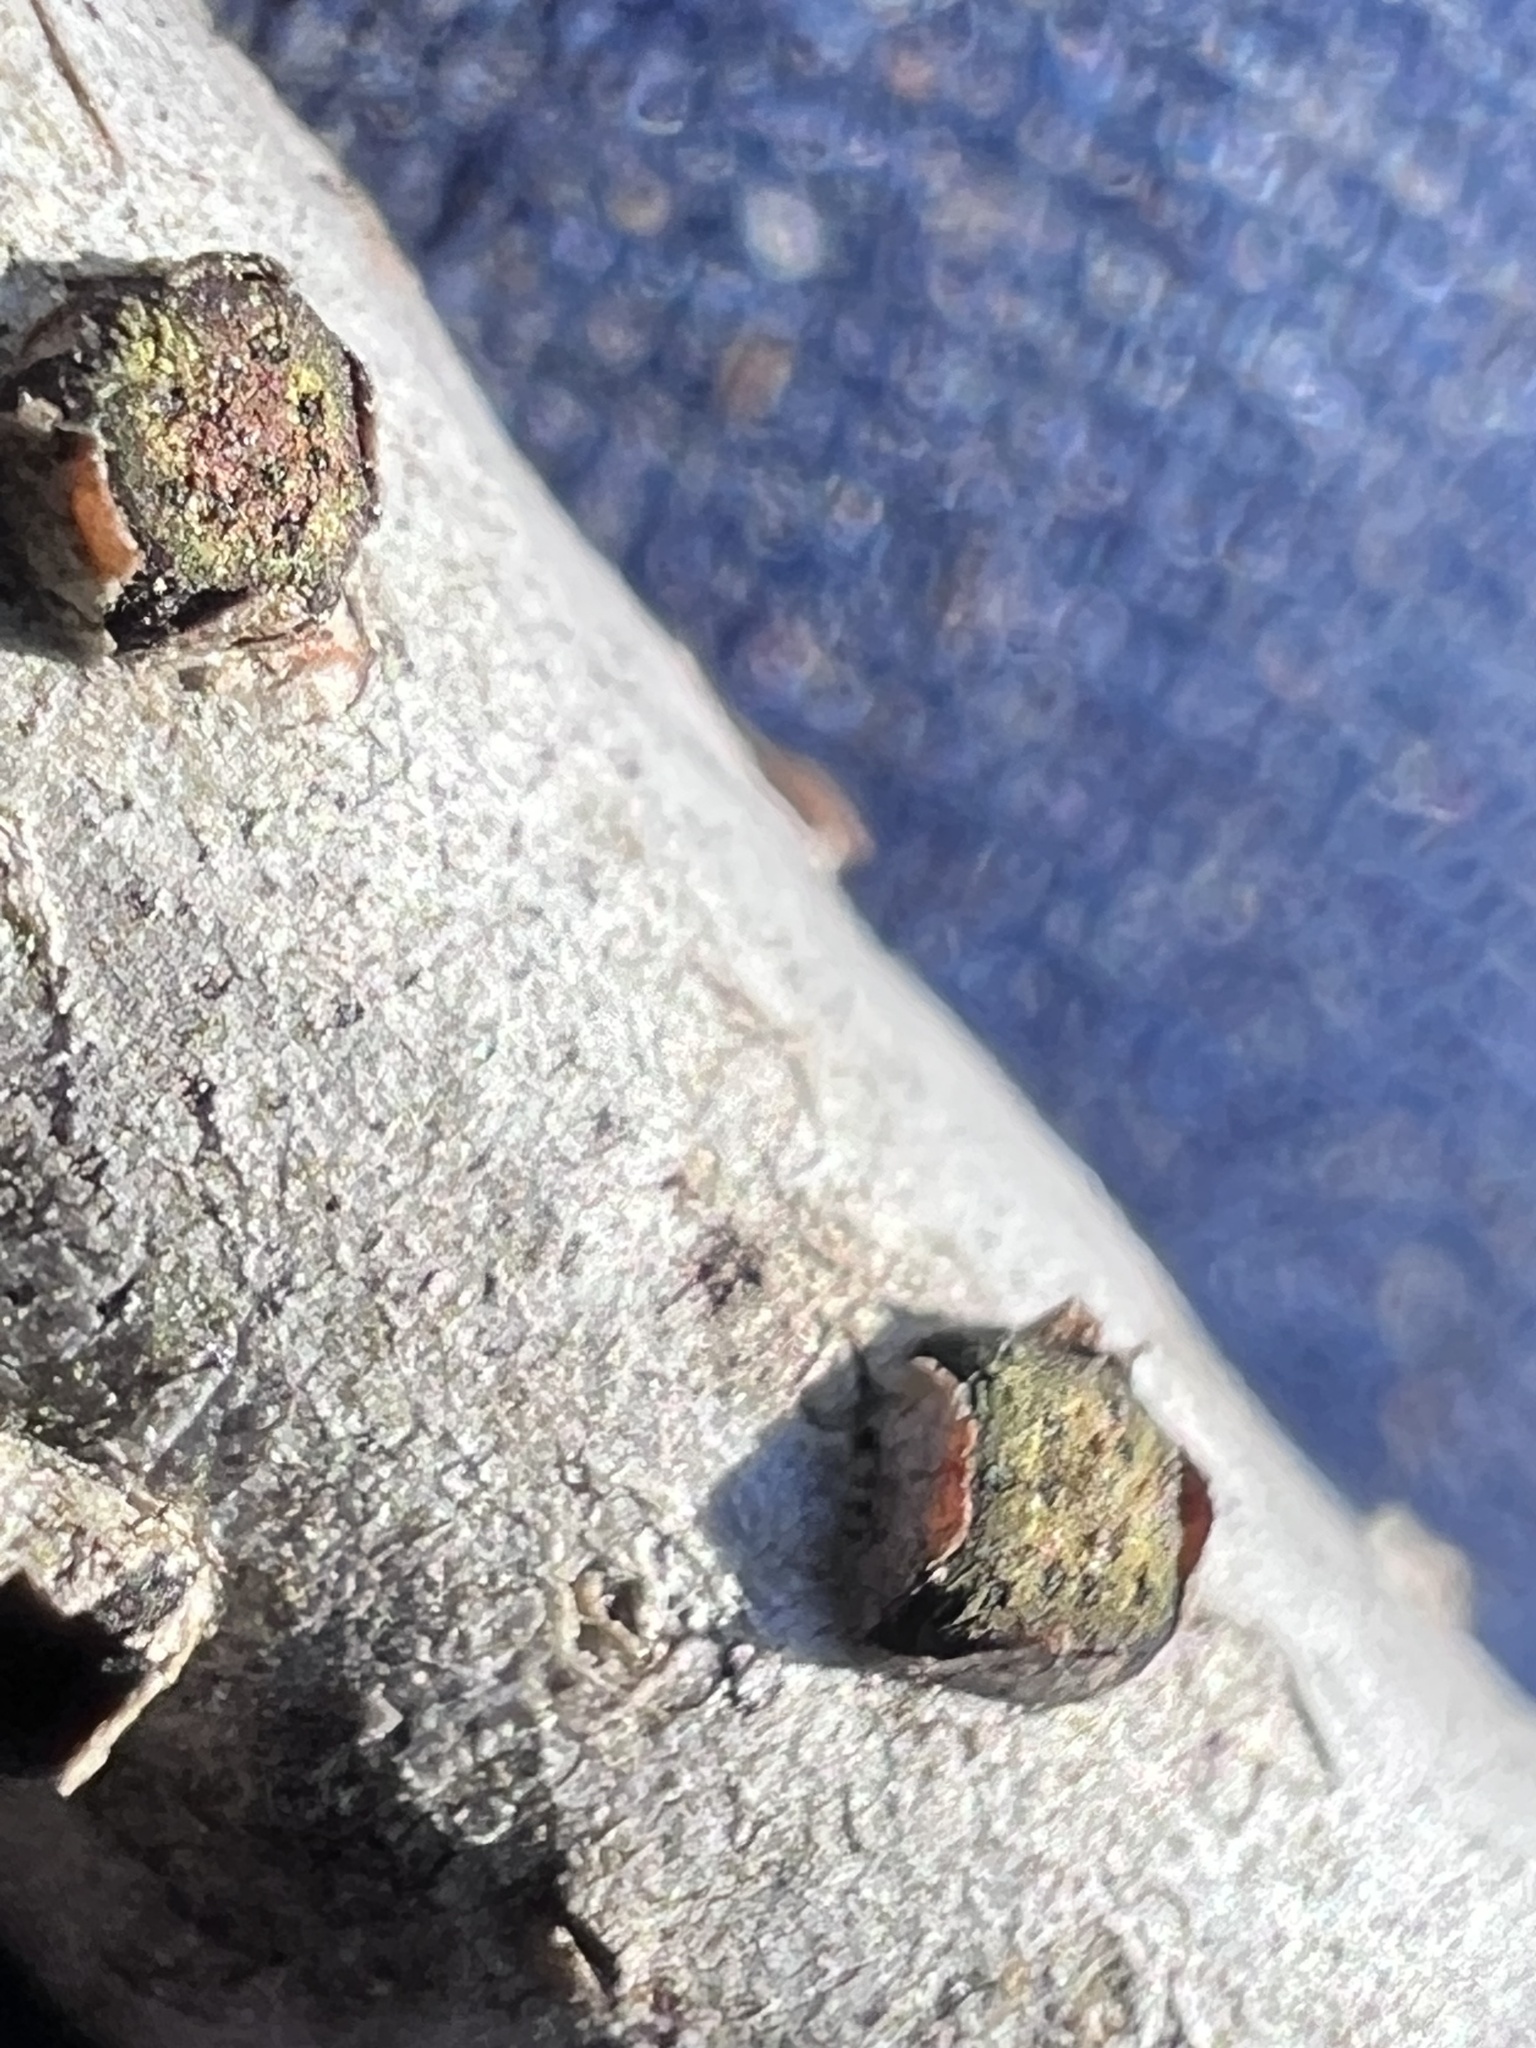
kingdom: Fungi
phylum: Ascomycota
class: Sordariomycetes
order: Xylariales
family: Diatrypaceae
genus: Diatrype
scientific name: Diatrype virescens
